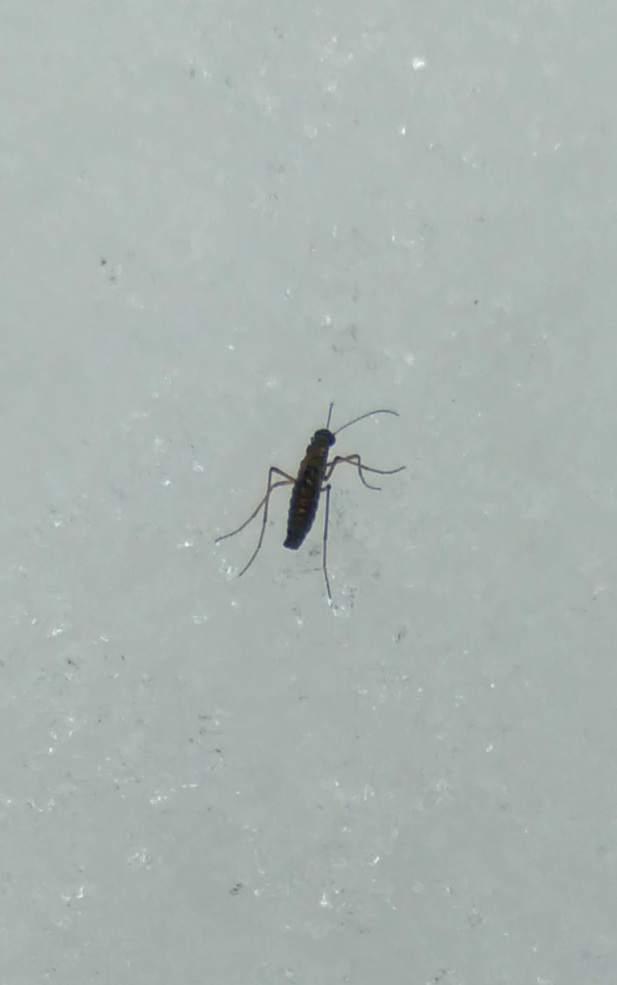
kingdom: Animalia
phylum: Arthropoda
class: Insecta
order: Mecoptera
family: Boreidae
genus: Boreus
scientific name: Boreus westwoodi
